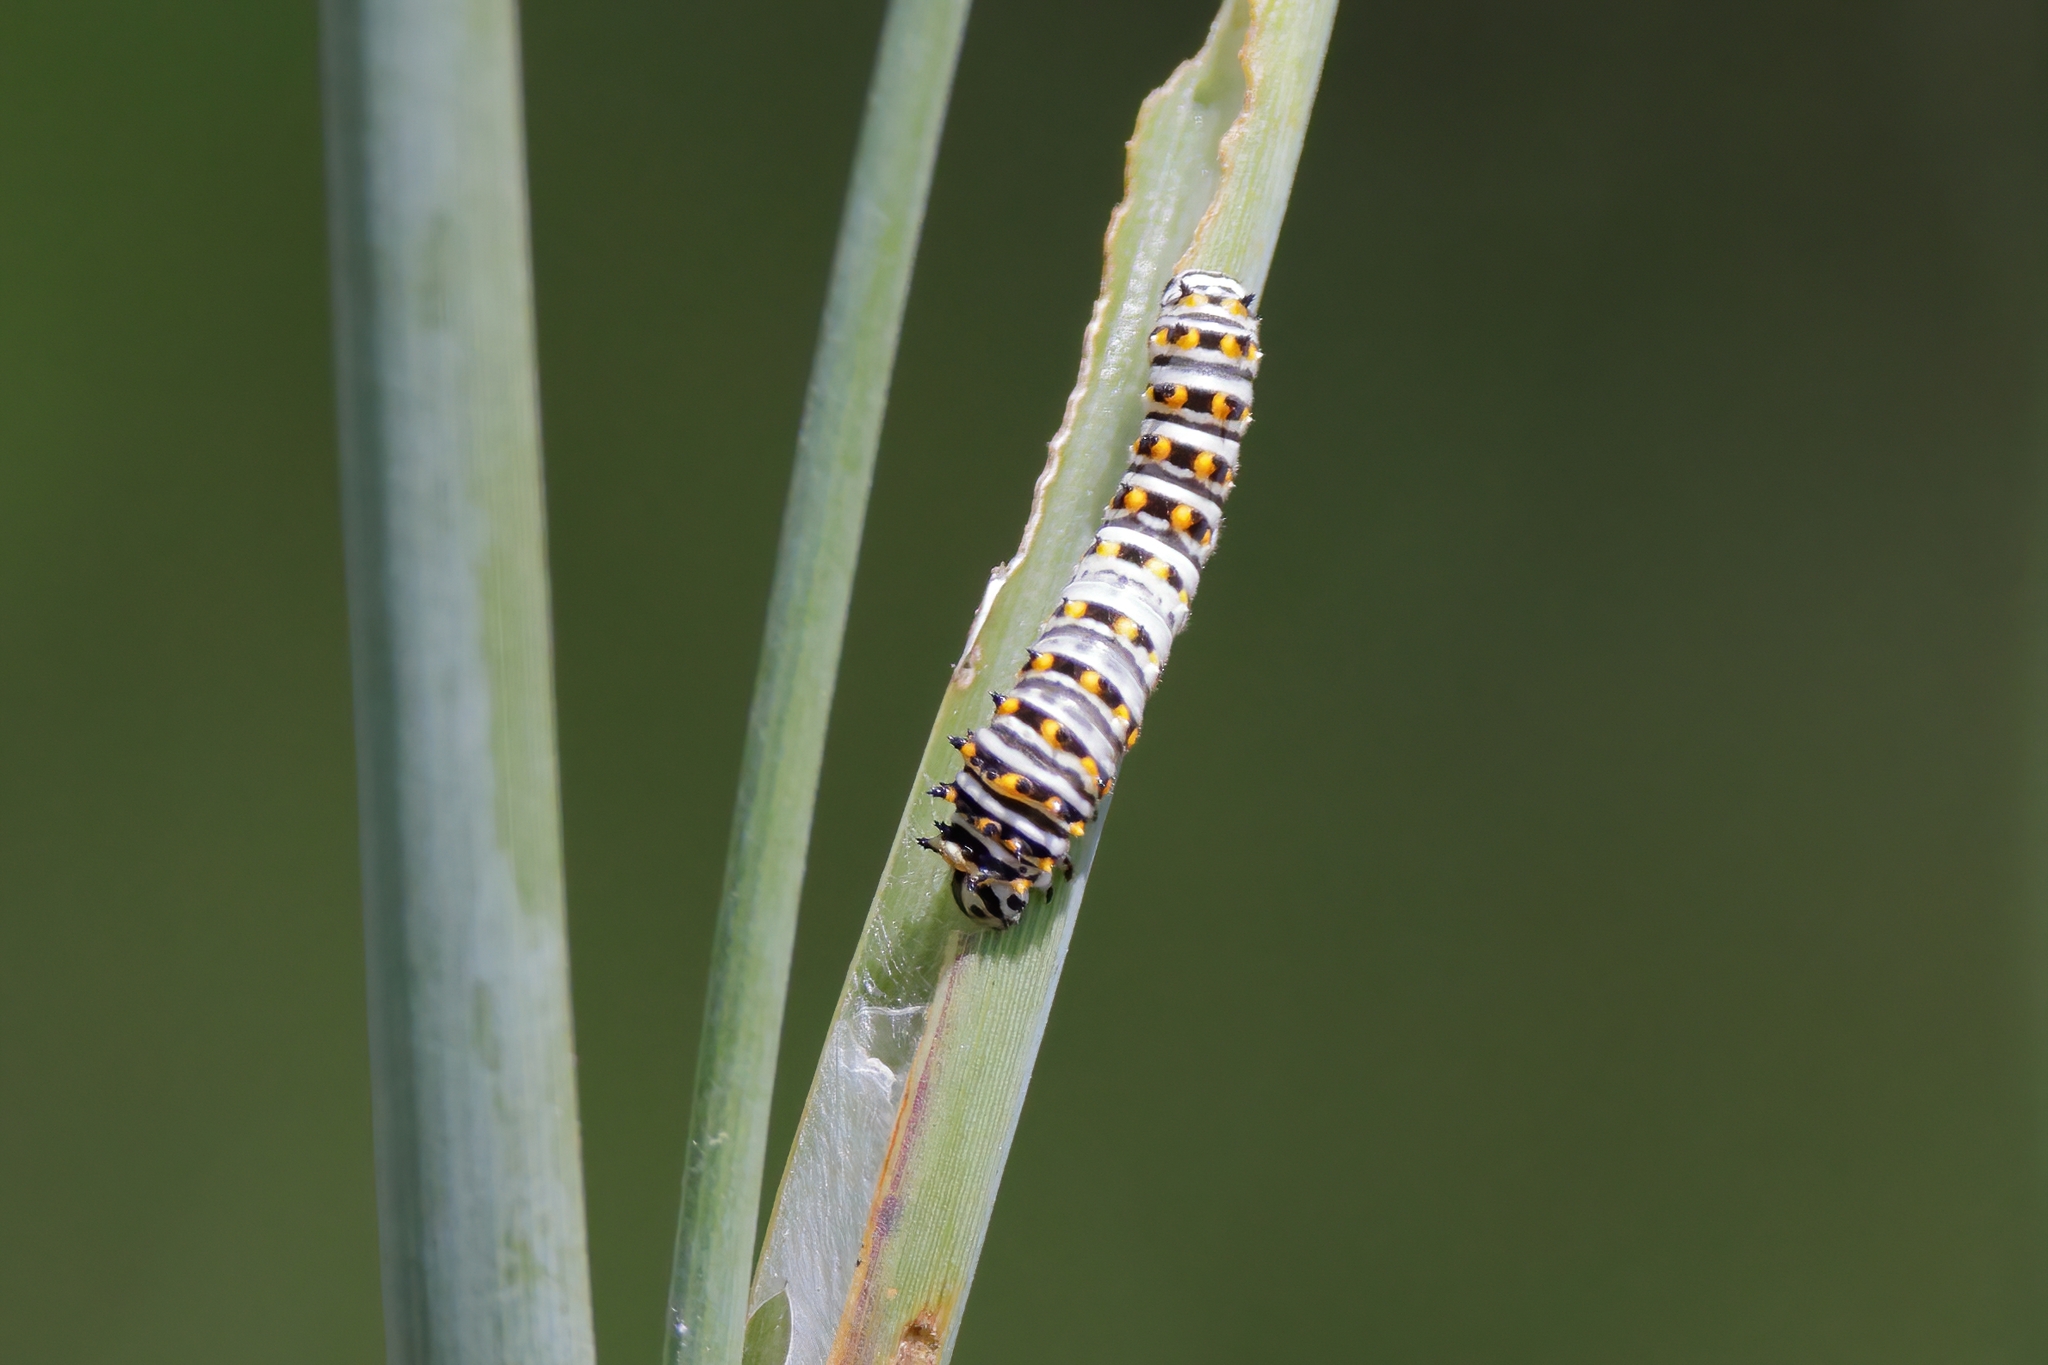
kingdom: Animalia
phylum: Arthropoda
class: Insecta
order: Lepidoptera
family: Papilionidae
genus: Papilio
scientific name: Papilio polyxenes
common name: Black swallowtail
